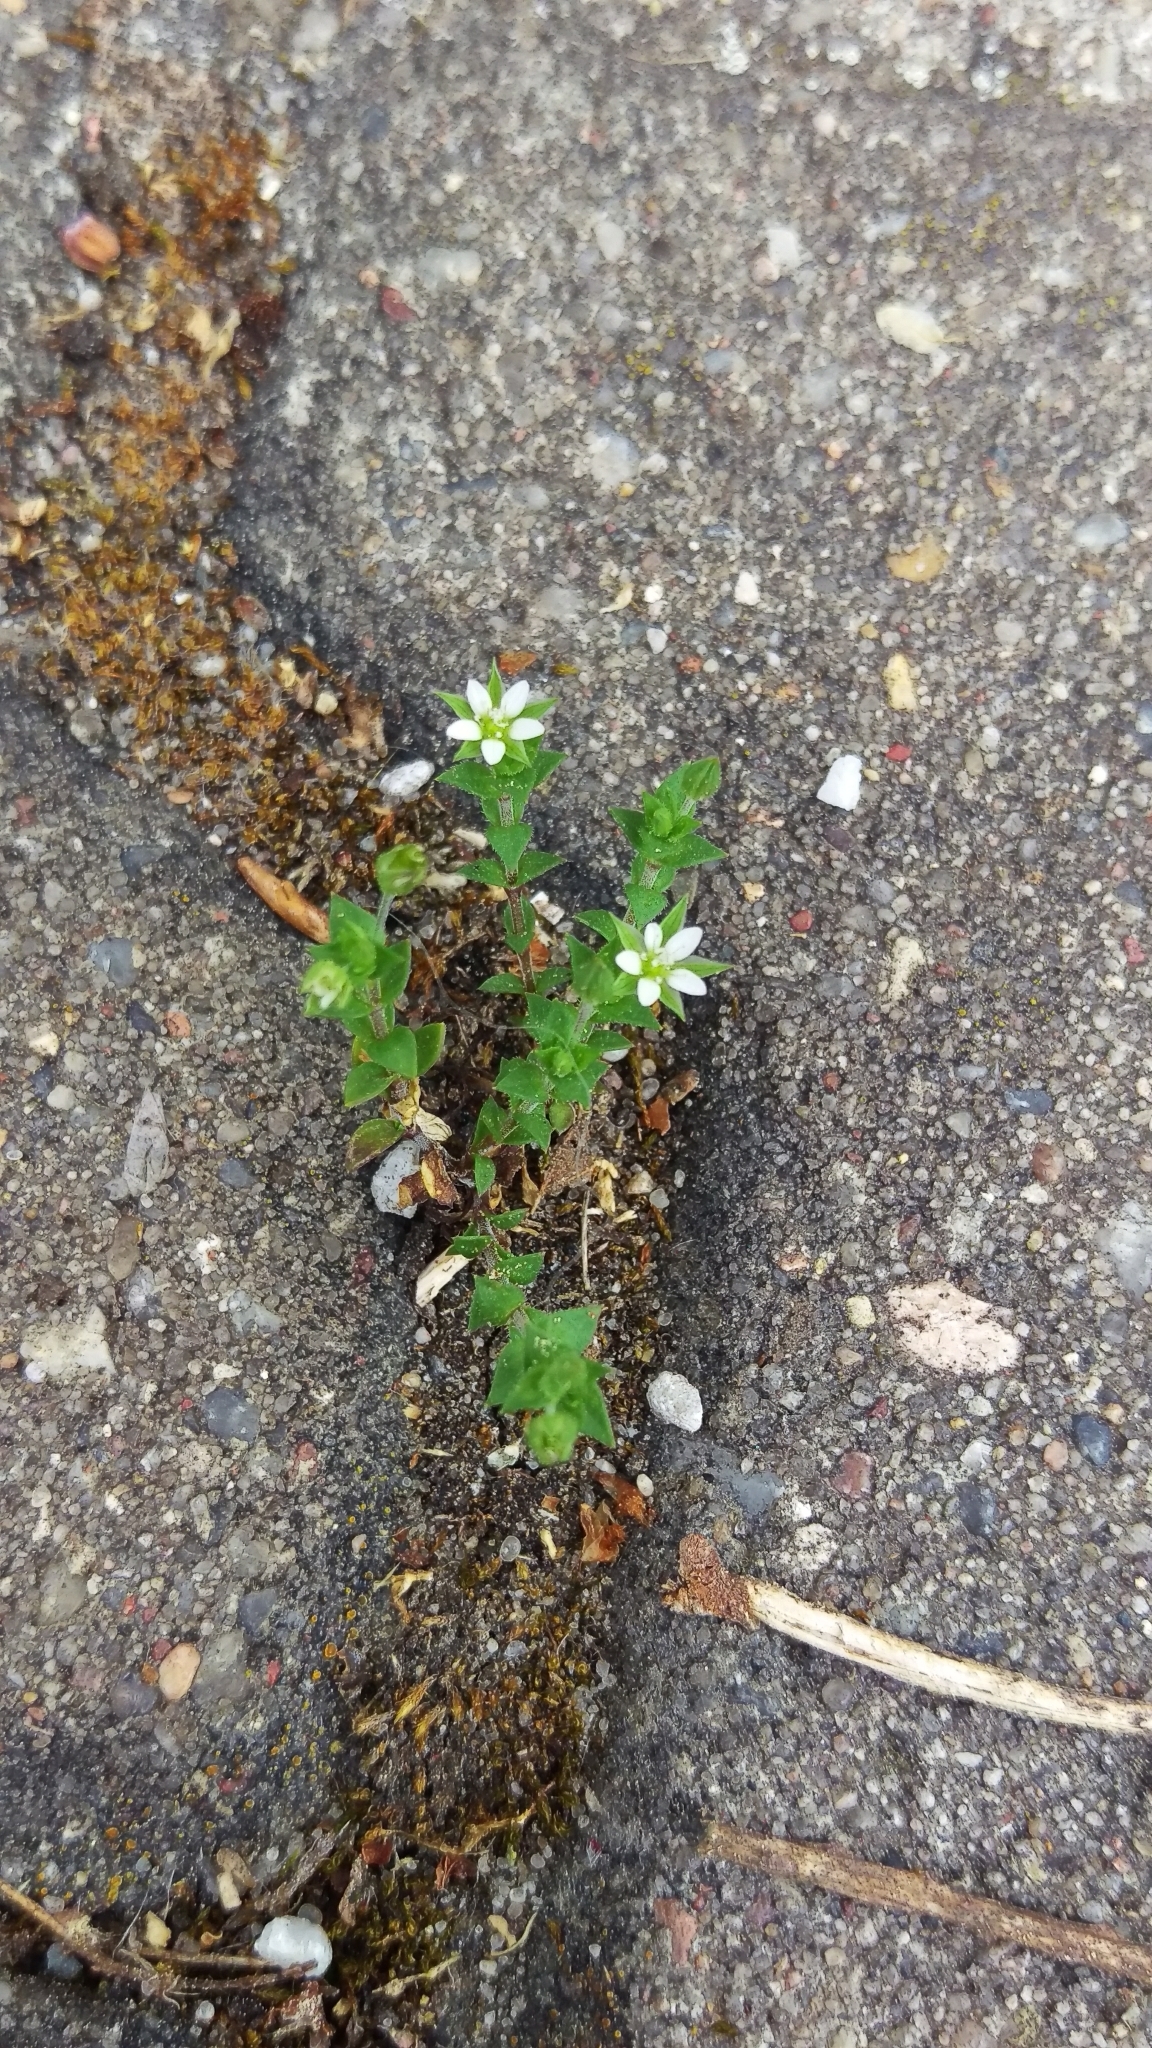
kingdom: Plantae
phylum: Tracheophyta
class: Magnoliopsida
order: Caryophyllales
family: Caryophyllaceae
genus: Arenaria
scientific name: Arenaria serpyllifolia
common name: Thyme-leaved sandwort
